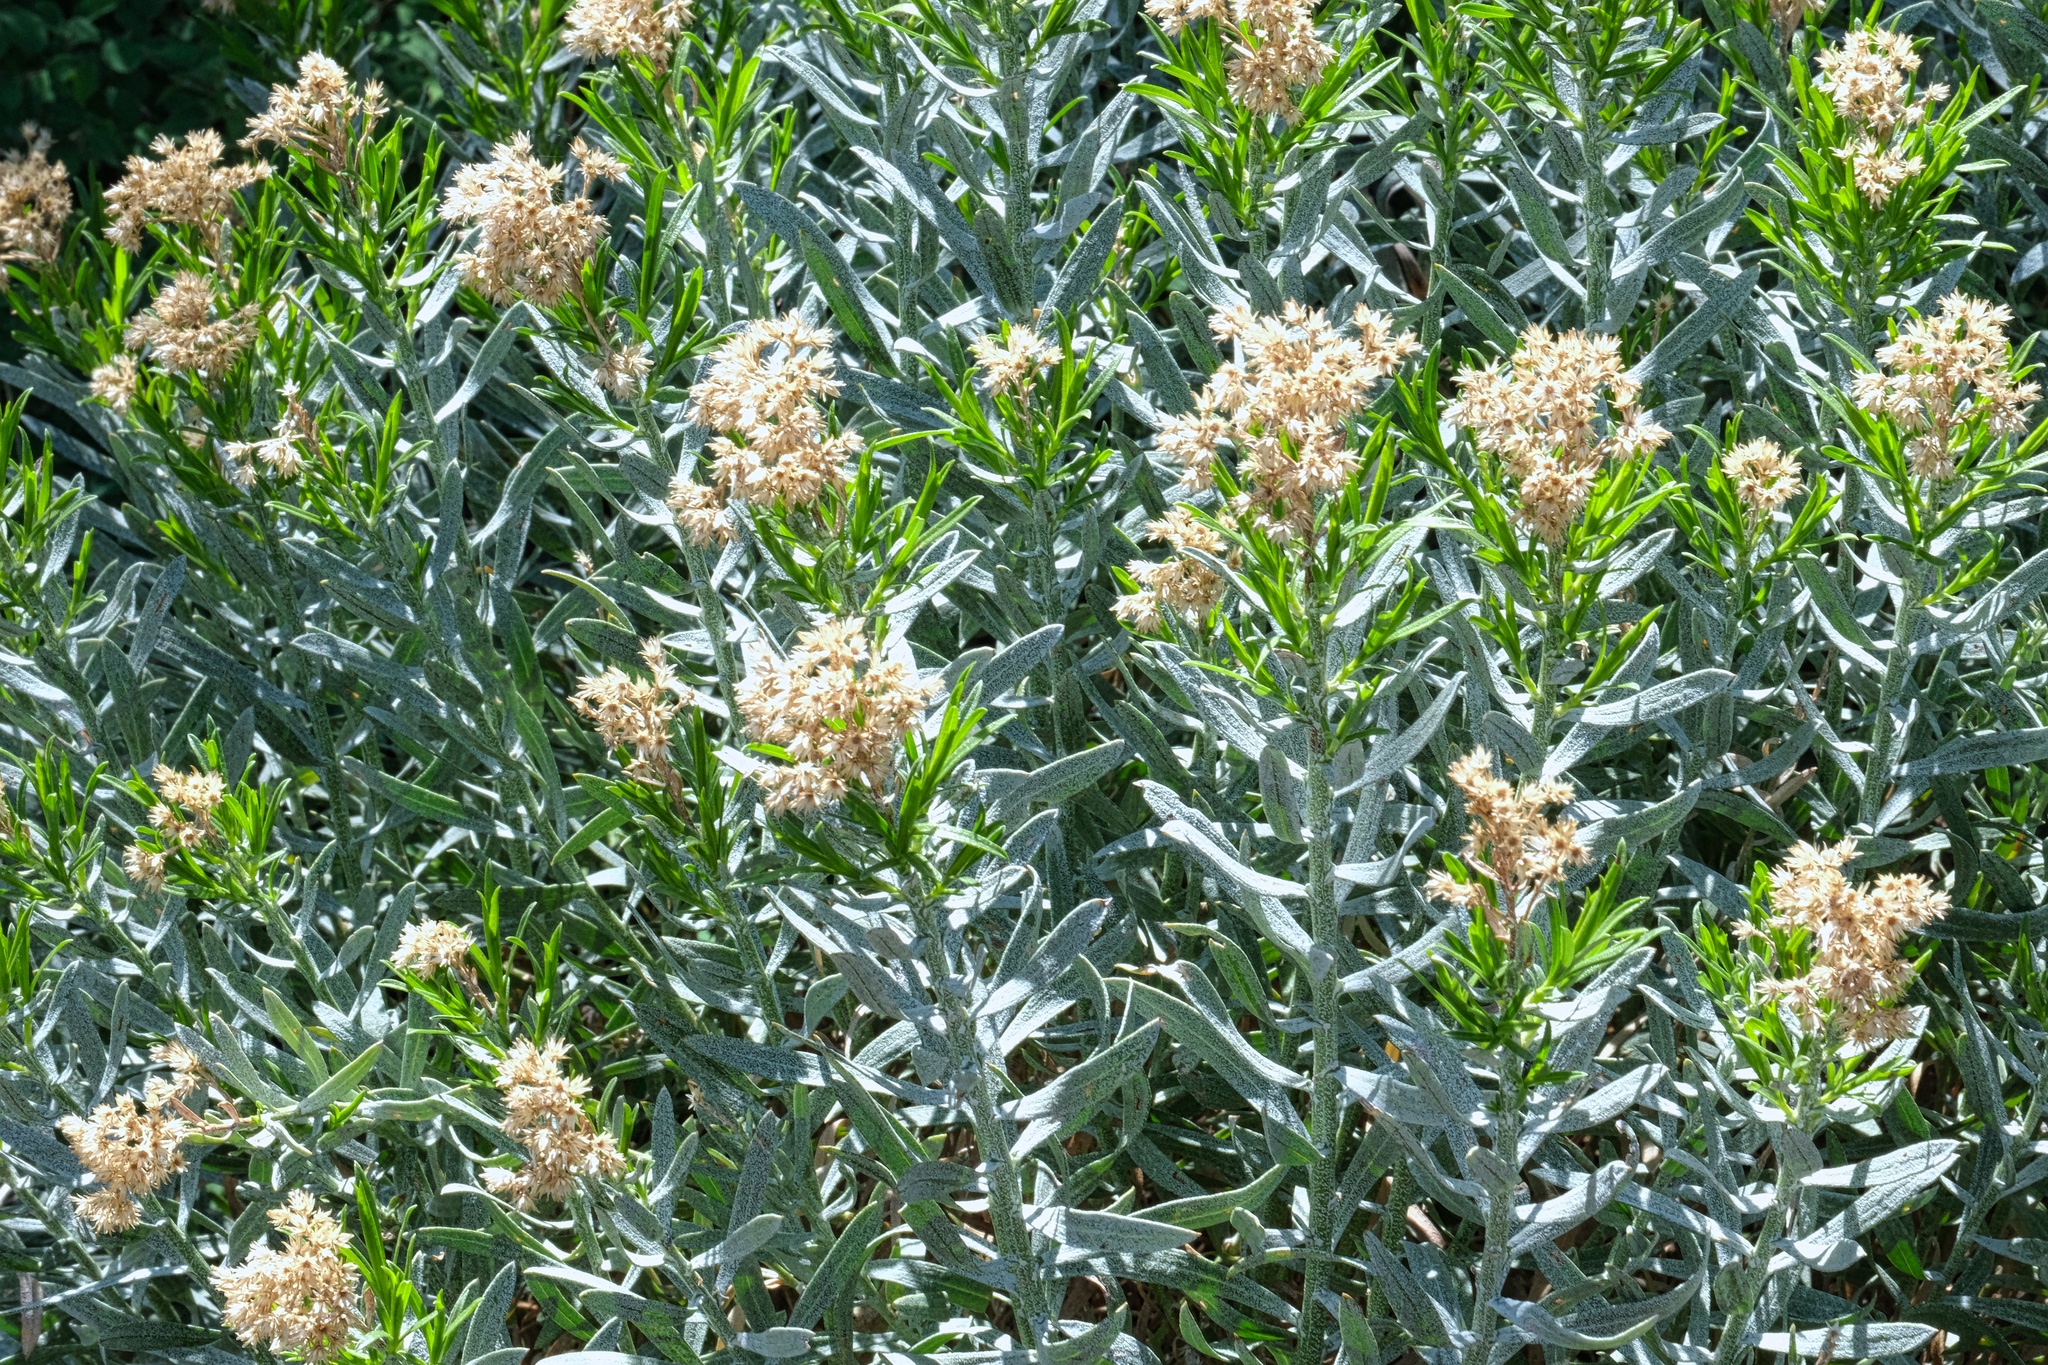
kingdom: Plantae
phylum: Tracheophyta
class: Magnoliopsida
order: Asterales
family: Asteraceae
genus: Ericameria
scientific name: Ericameria parishii
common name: Parish's goldenbush
